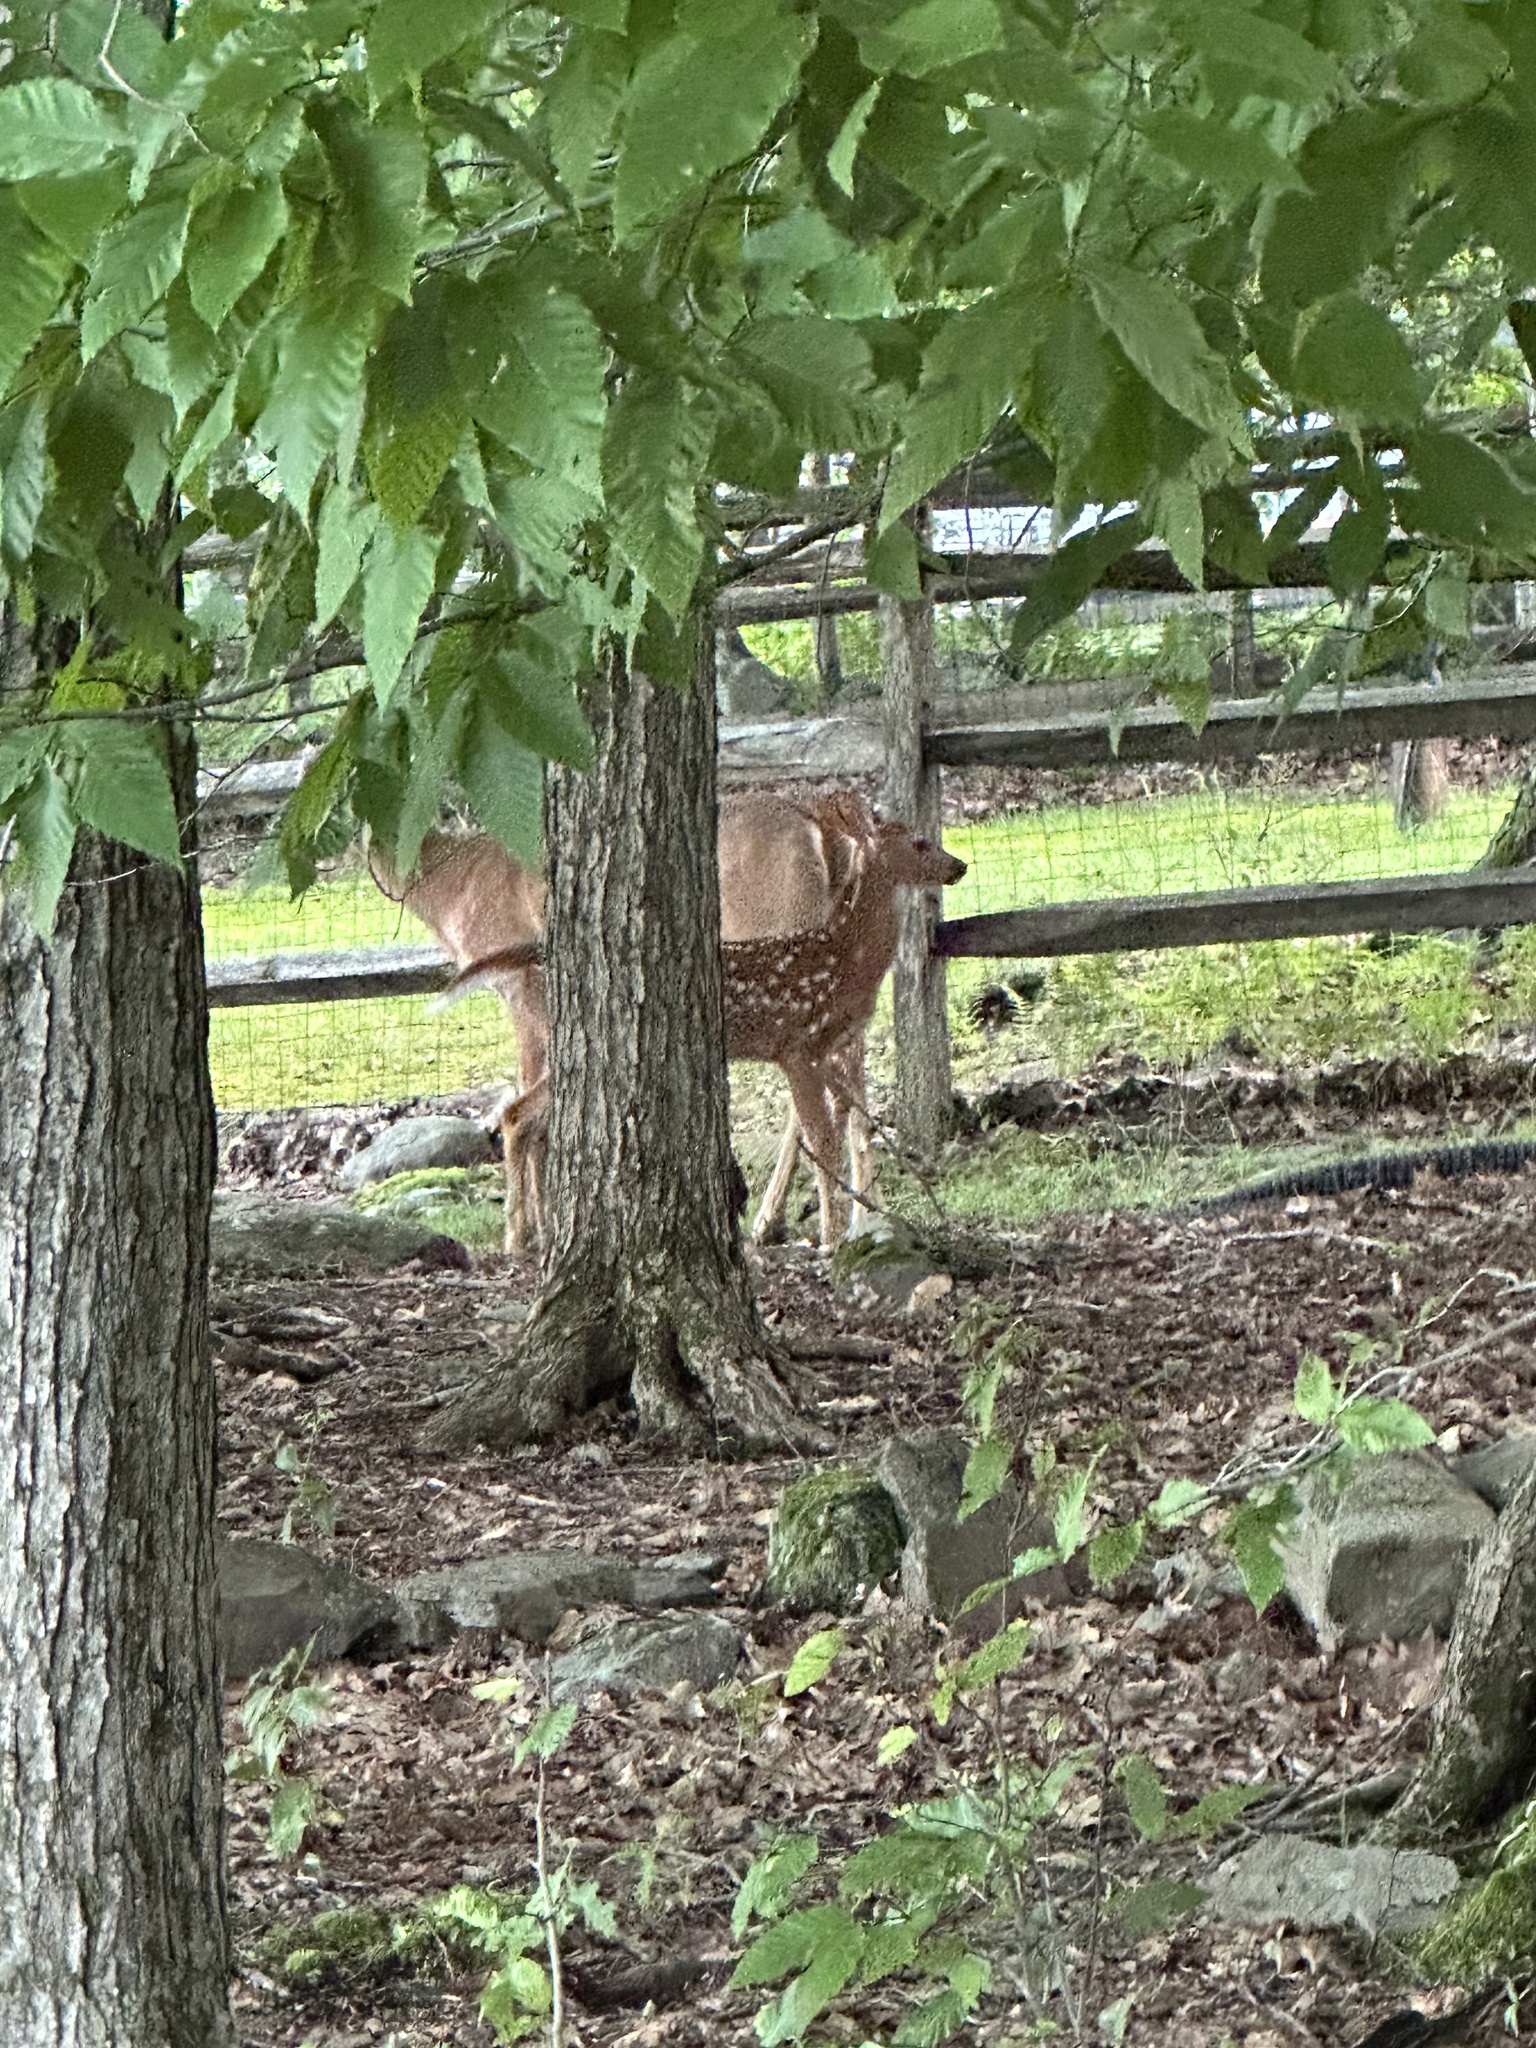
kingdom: Animalia
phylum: Chordata
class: Mammalia
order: Artiodactyla
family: Cervidae
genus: Odocoileus
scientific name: Odocoileus virginianus
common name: White-tailed deer
